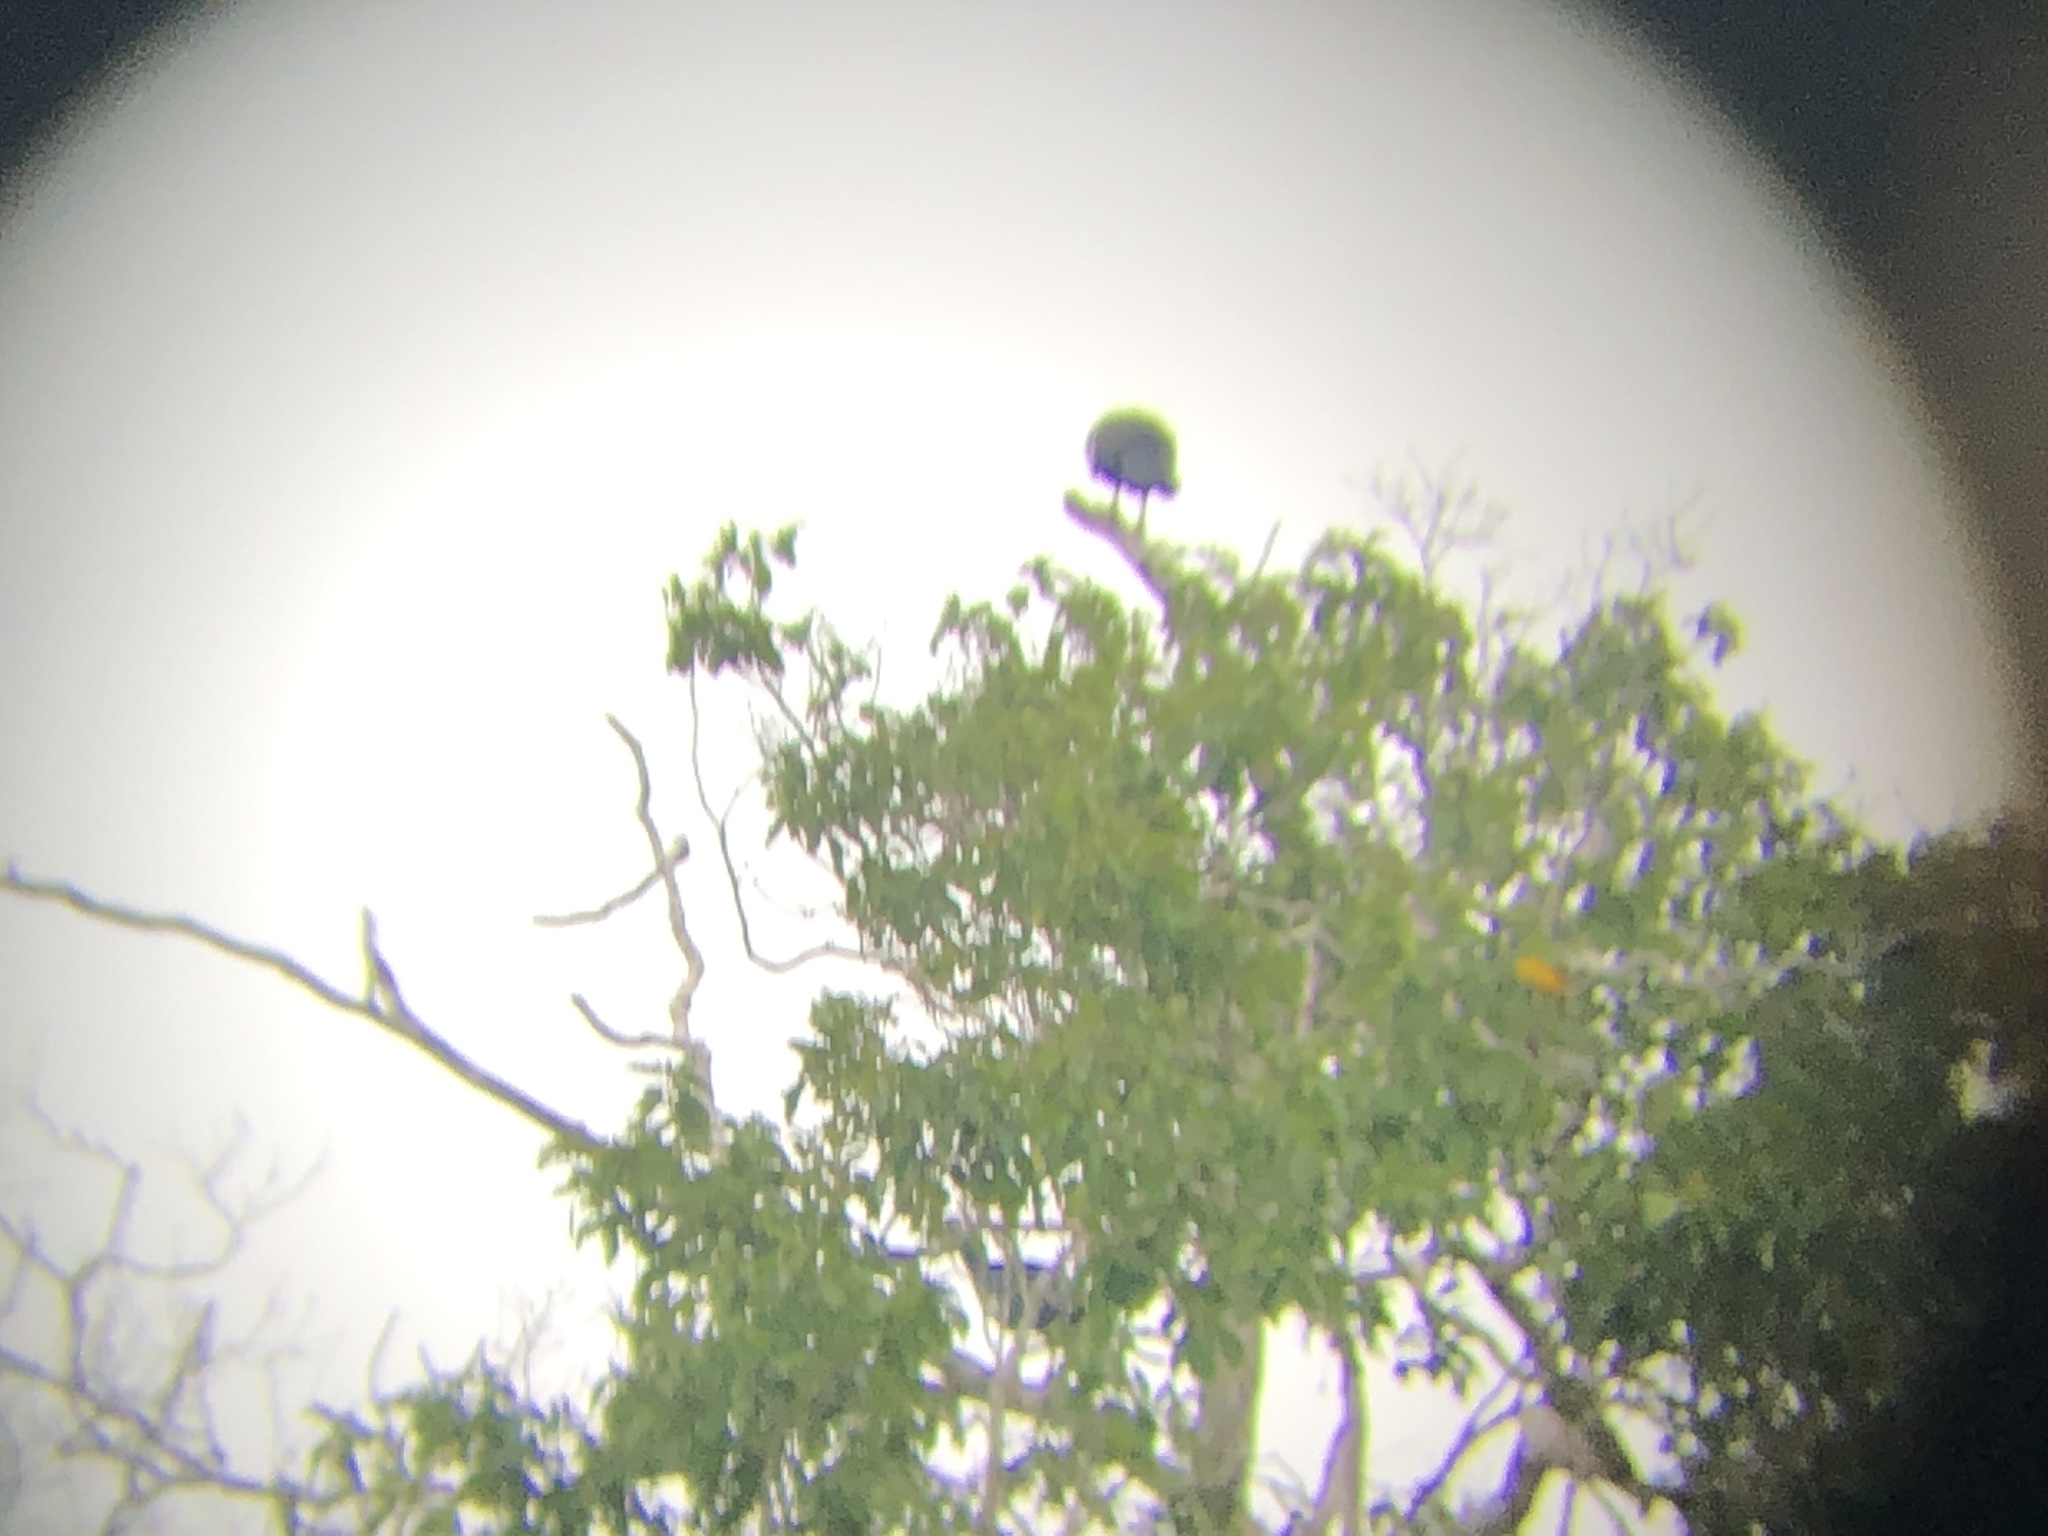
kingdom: Animalia
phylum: Chordata
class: Aves
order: Galliformes
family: Cracidae
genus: Pipile
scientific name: Pipile cumanensis
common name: Blue-throated piping-guan
